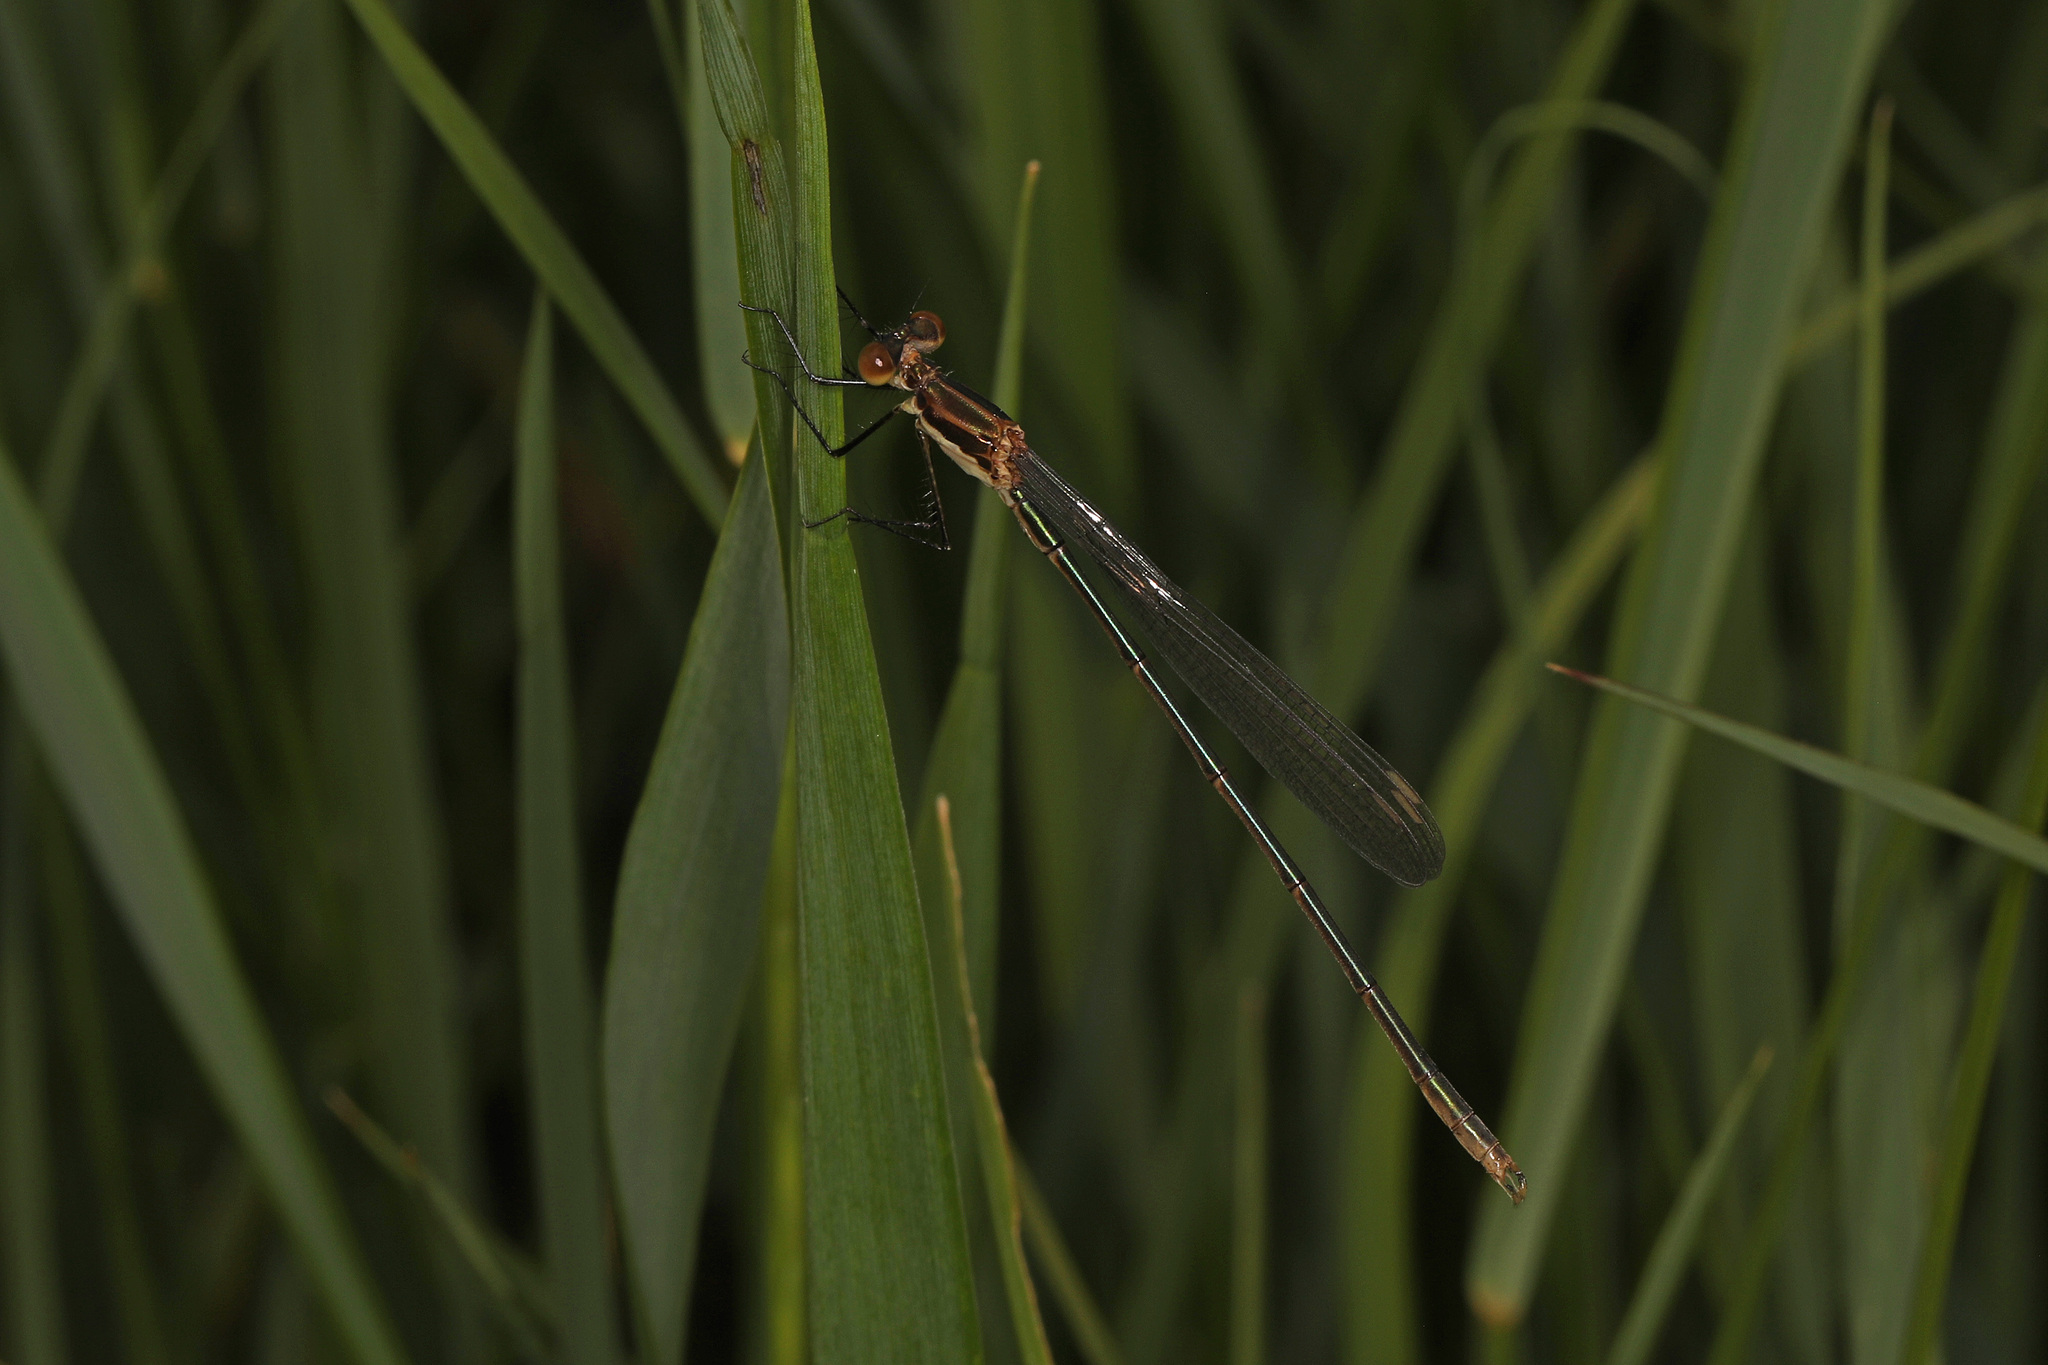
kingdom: Animalia
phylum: Arthropoda
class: Insecta
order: Odonata
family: Lestidae
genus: Lestes
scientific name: Lestes vigilax
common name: Swamp spreadwing
